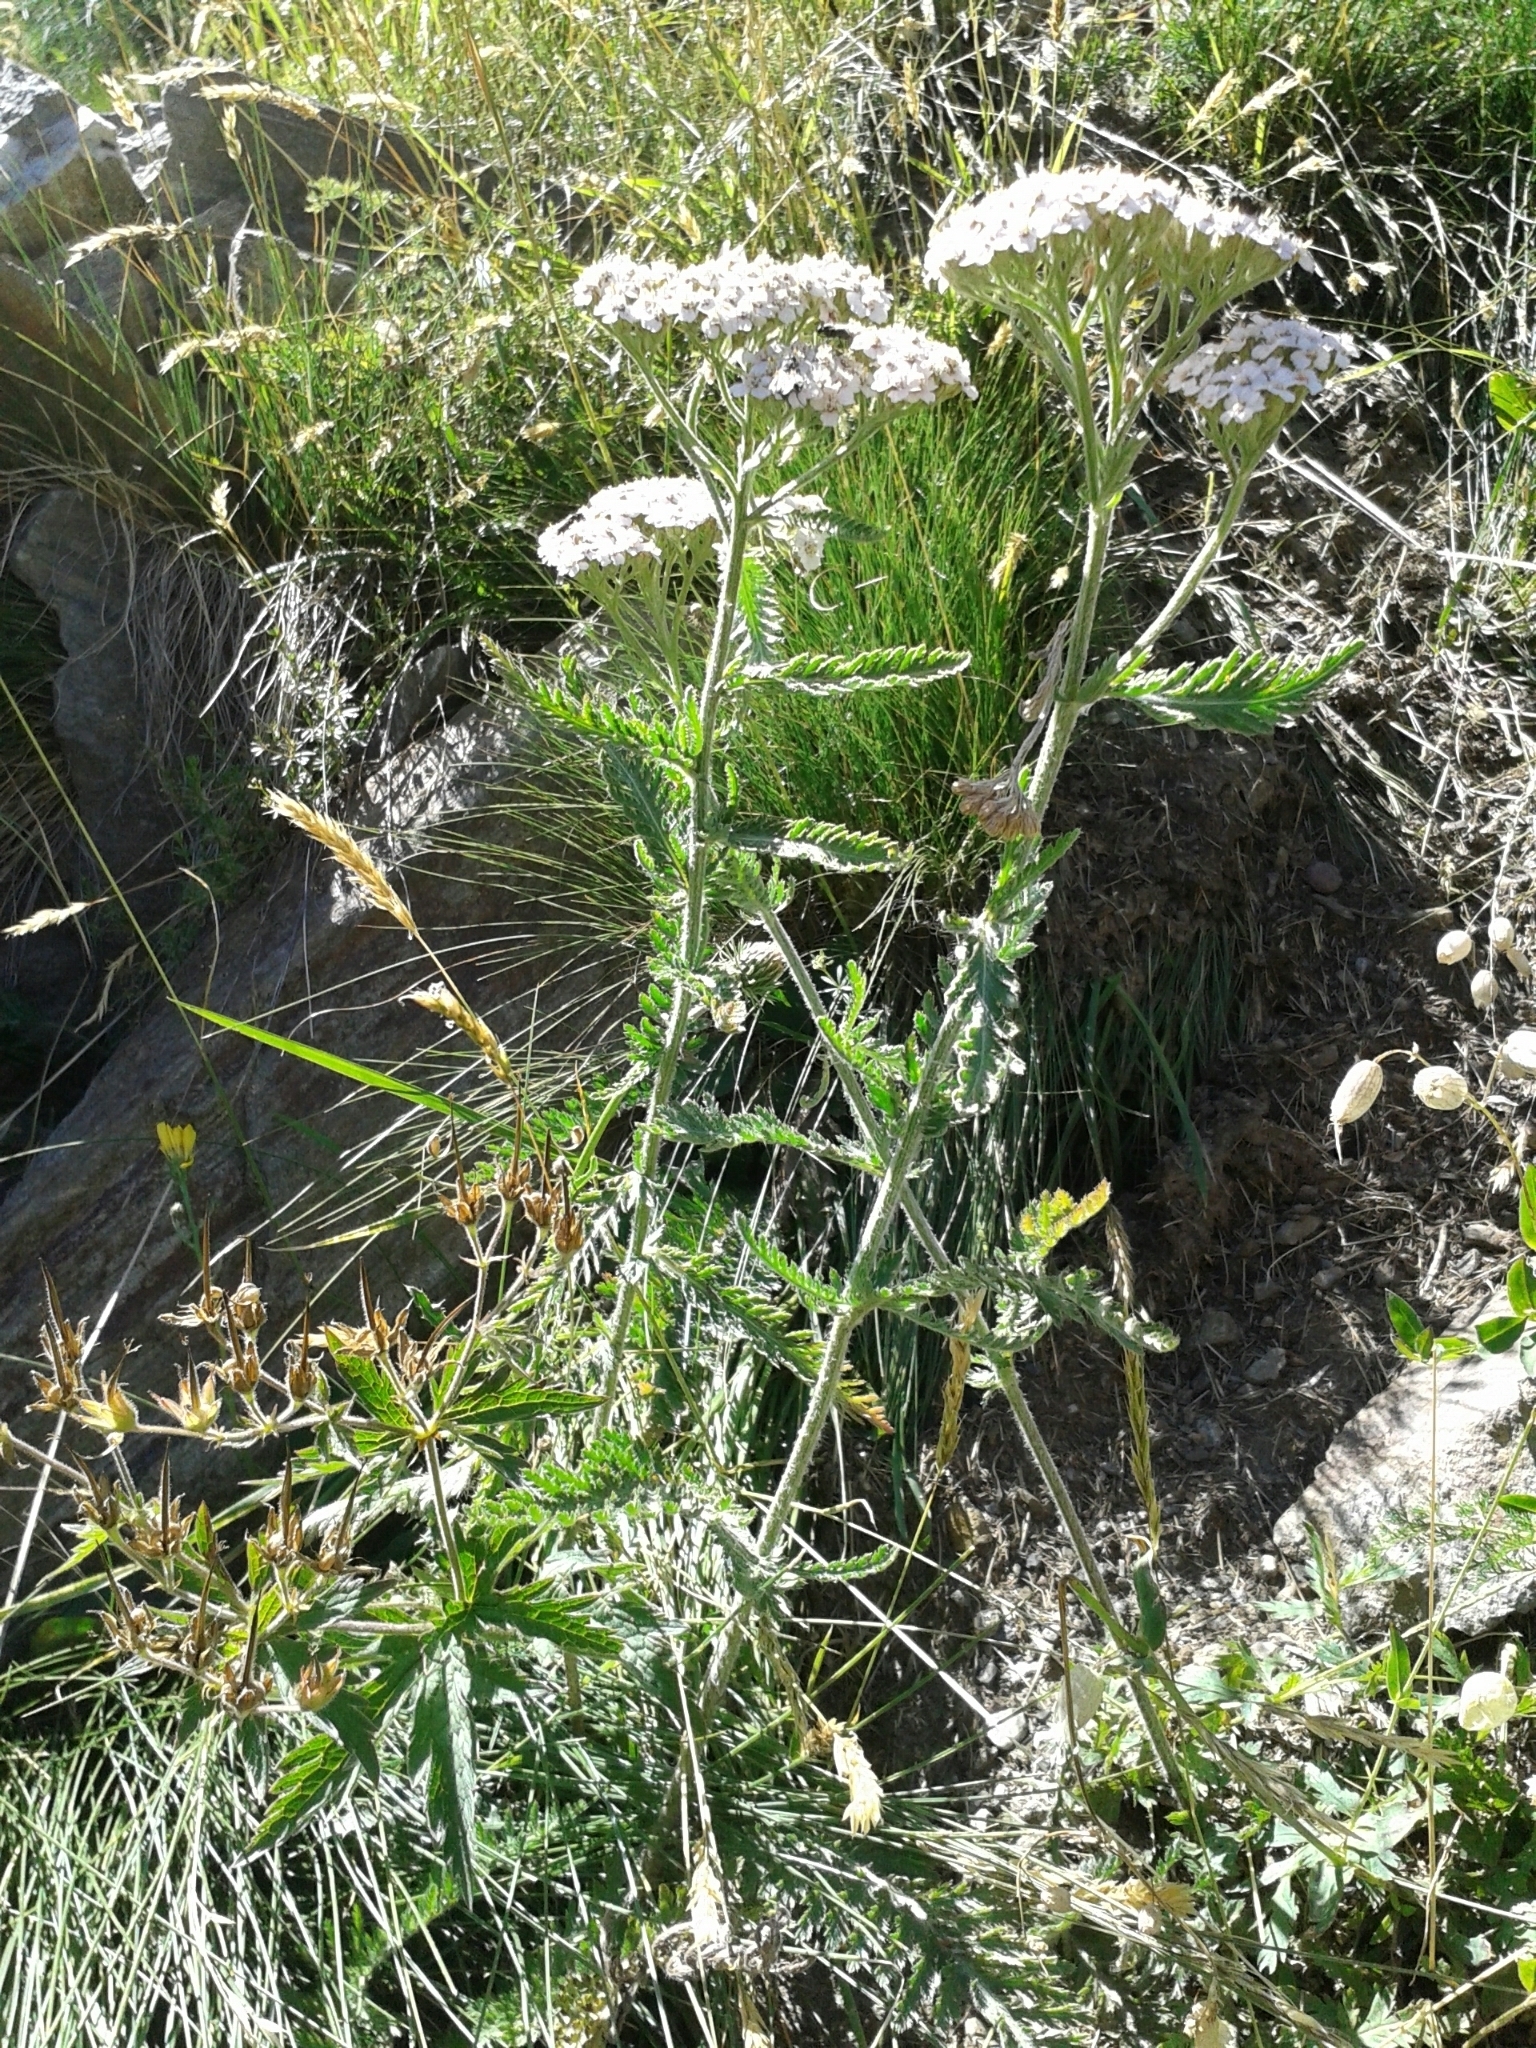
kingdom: Plantae
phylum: Tracheophyta
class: Magnoliopsida
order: Asterales
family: Asteraceae
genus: Achillea
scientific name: Achillea millefolium
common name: Yarrow
